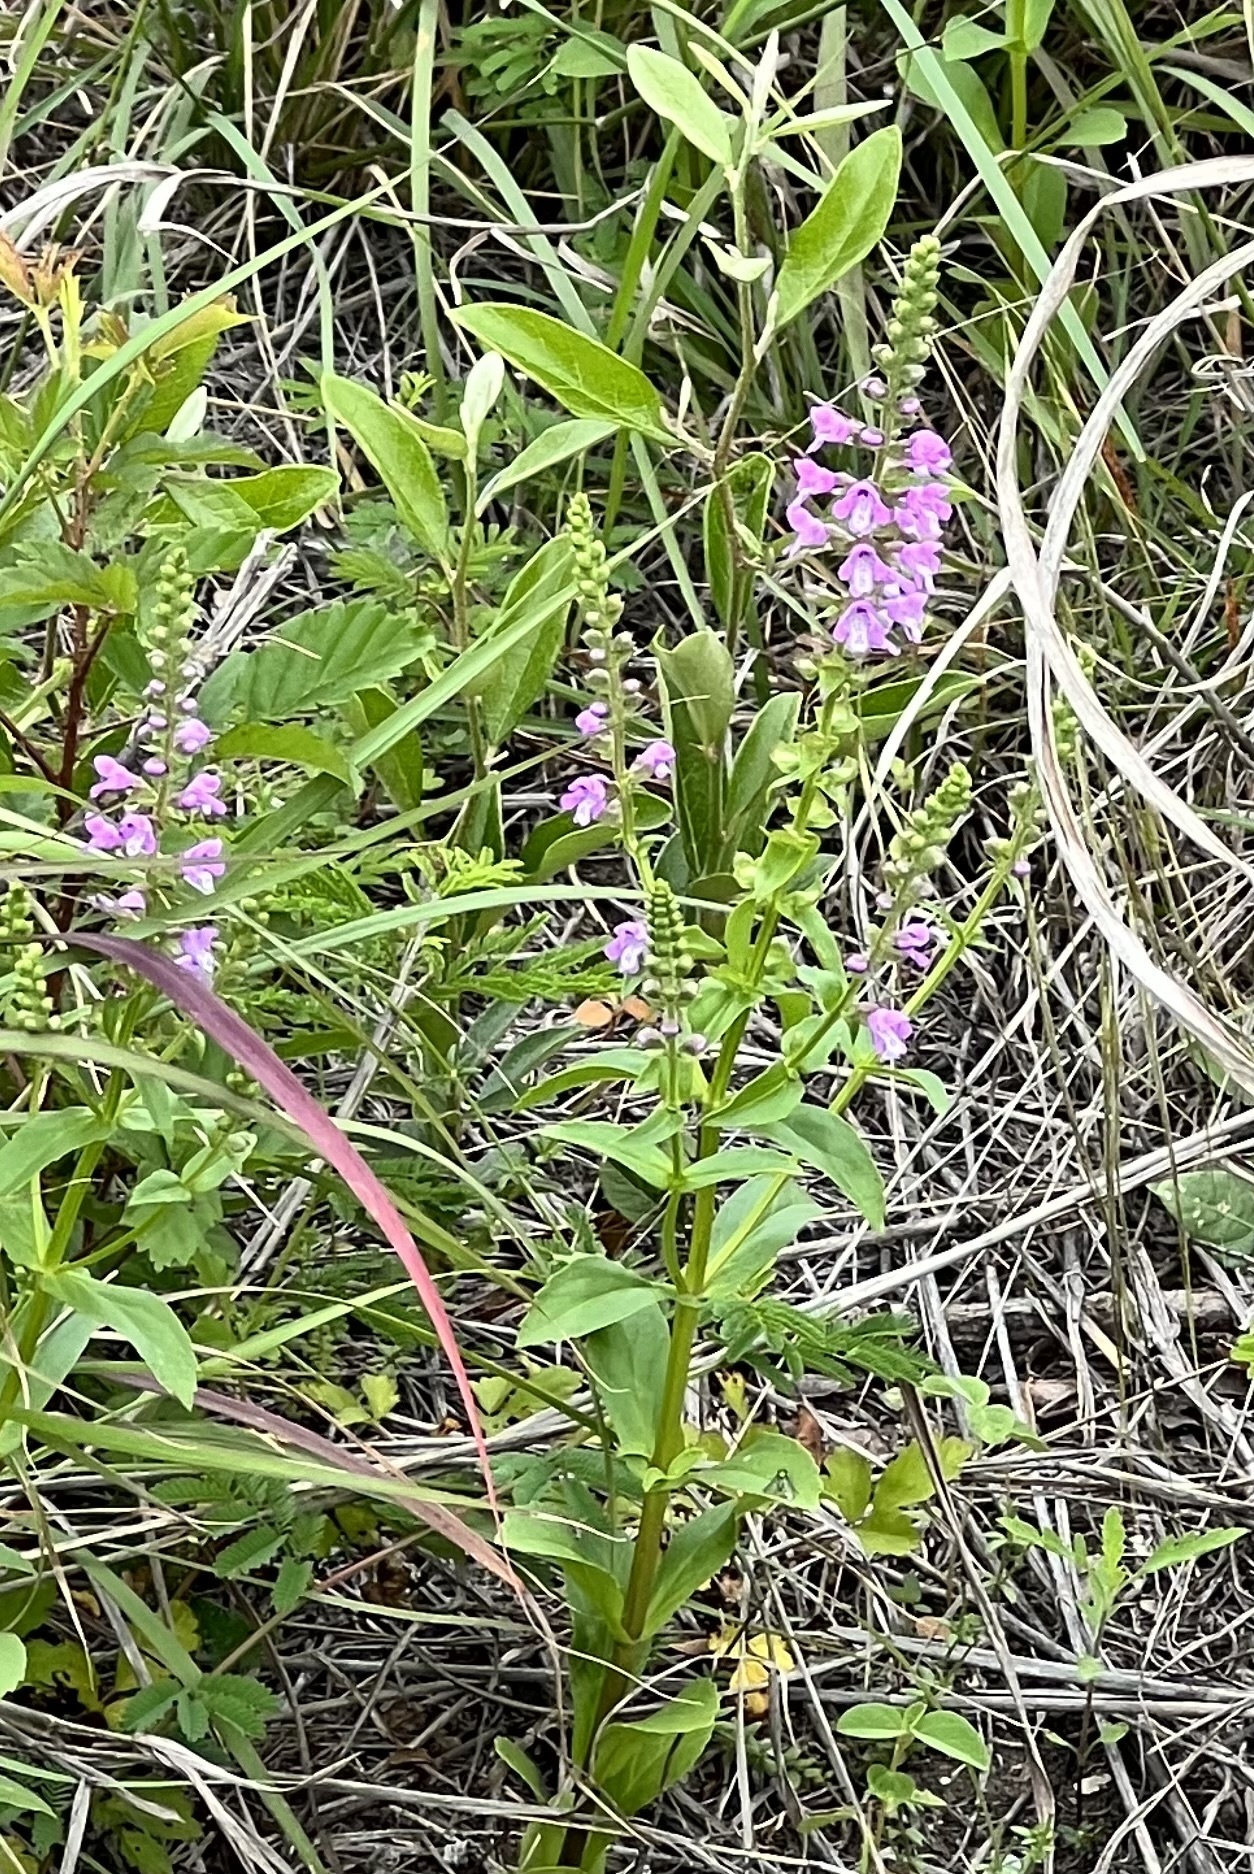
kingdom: Plantae
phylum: Tracheophyta
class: Magnoliopsida
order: Lamiales
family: Lamiaceae
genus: Warnockia
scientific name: Warnockia scutellarioides
